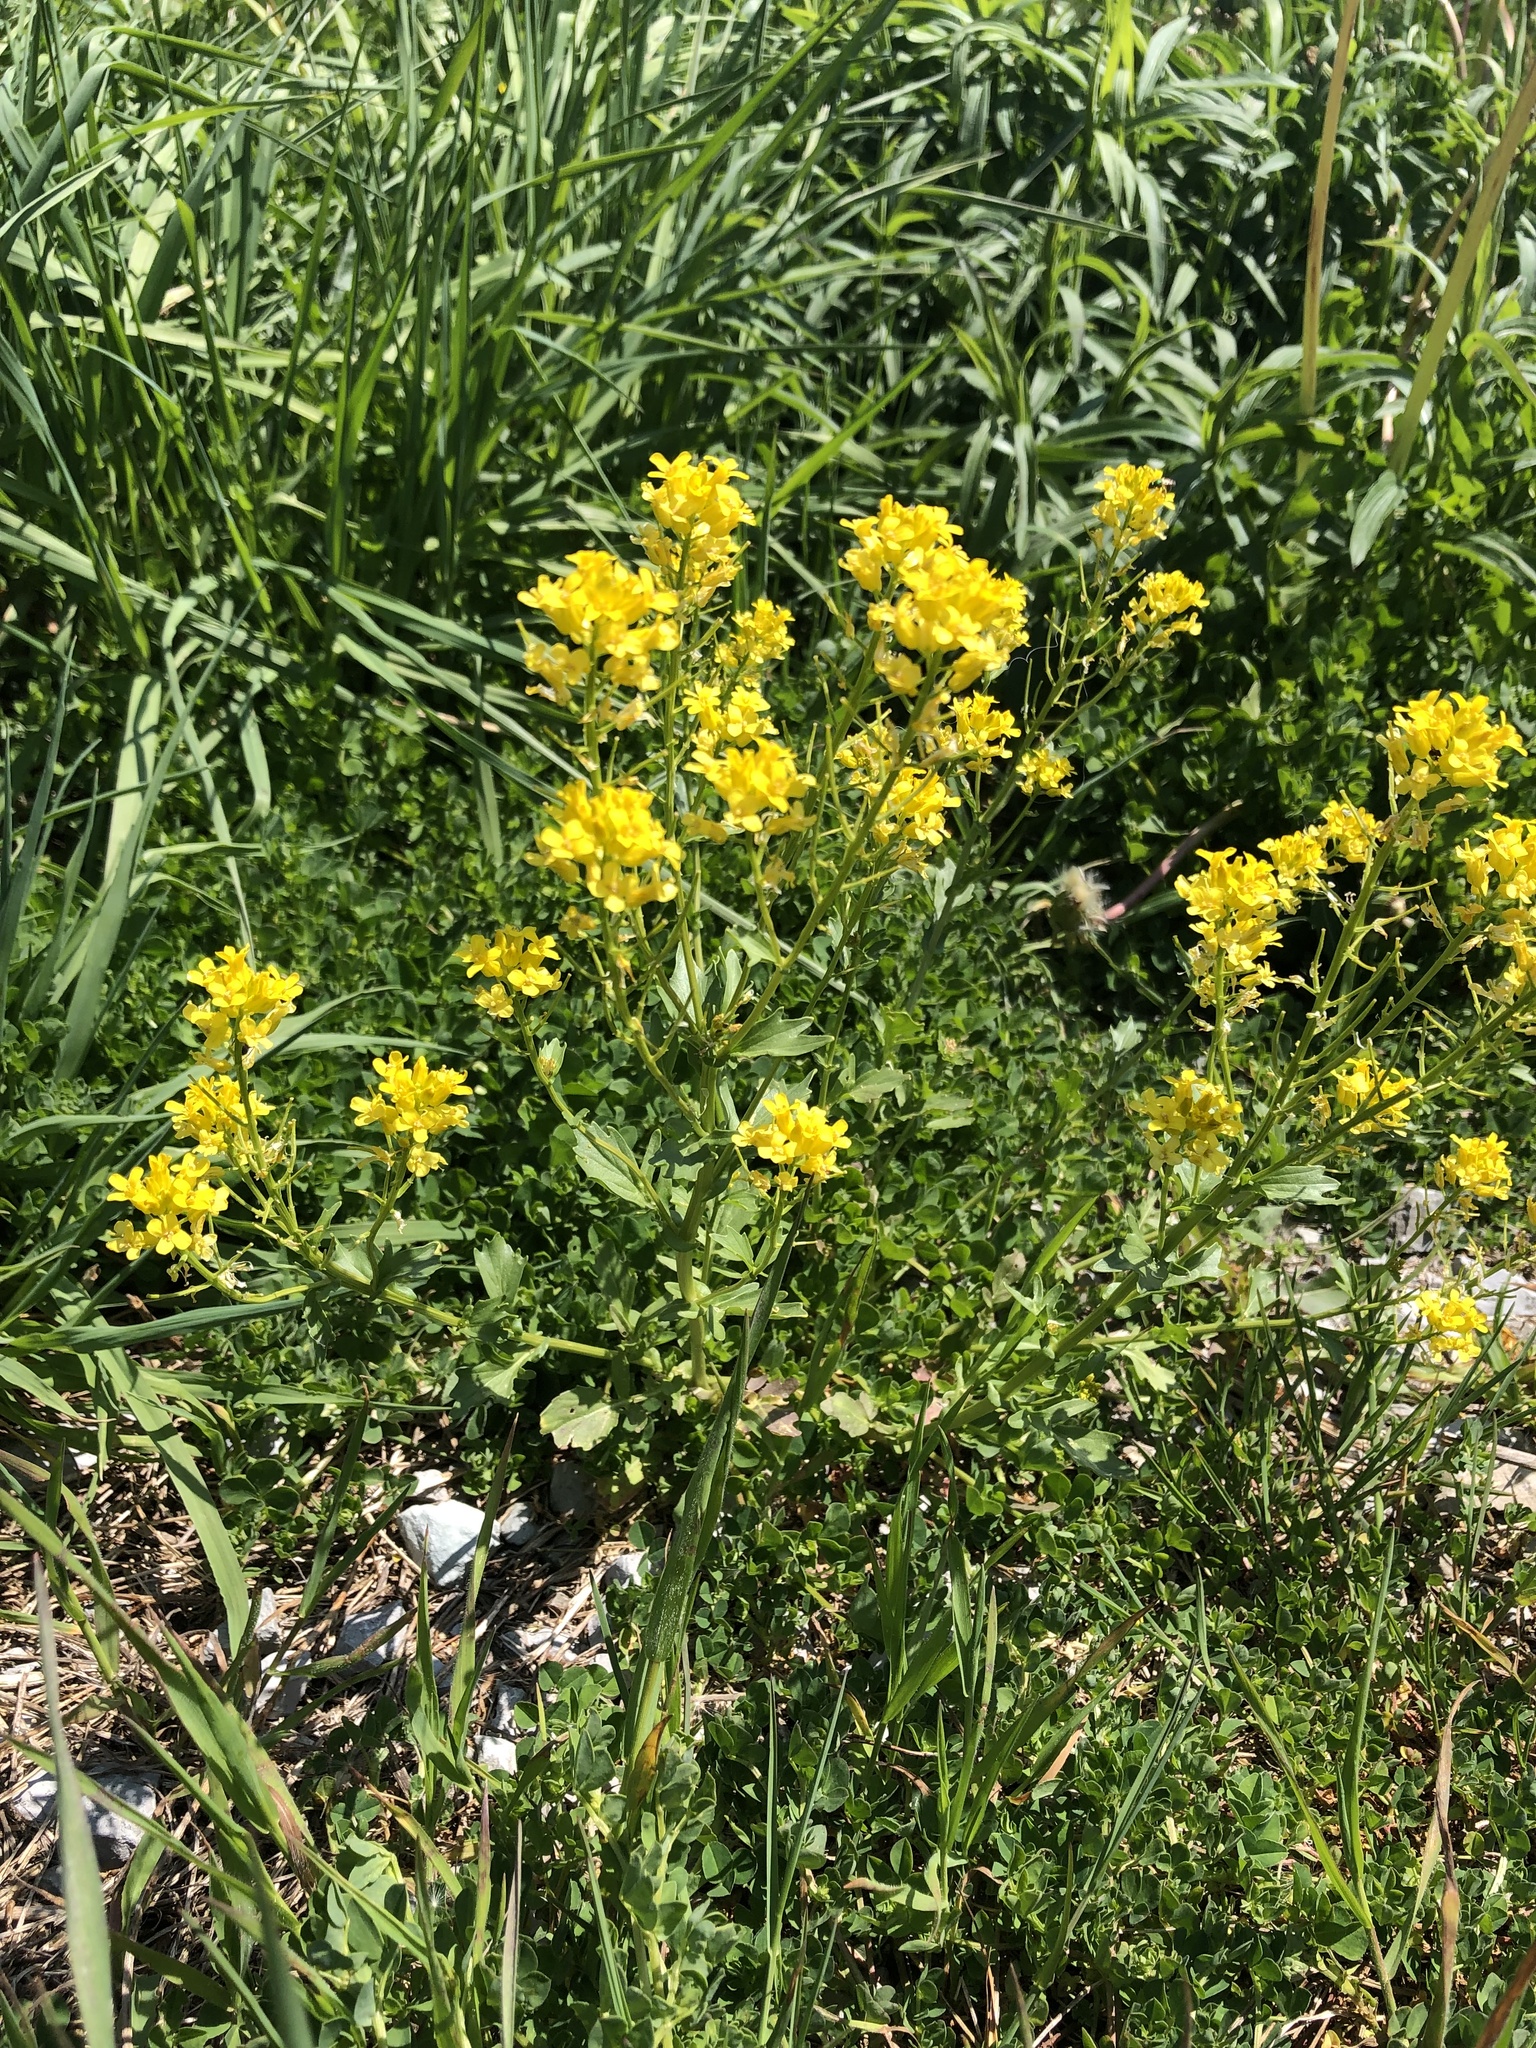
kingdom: Plantae
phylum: Tracheophyta
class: Magnoliopsida
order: Brassicales
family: Brassicaceae
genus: Barbarea
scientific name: Barbarea vulgaris
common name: Cressy-greens
